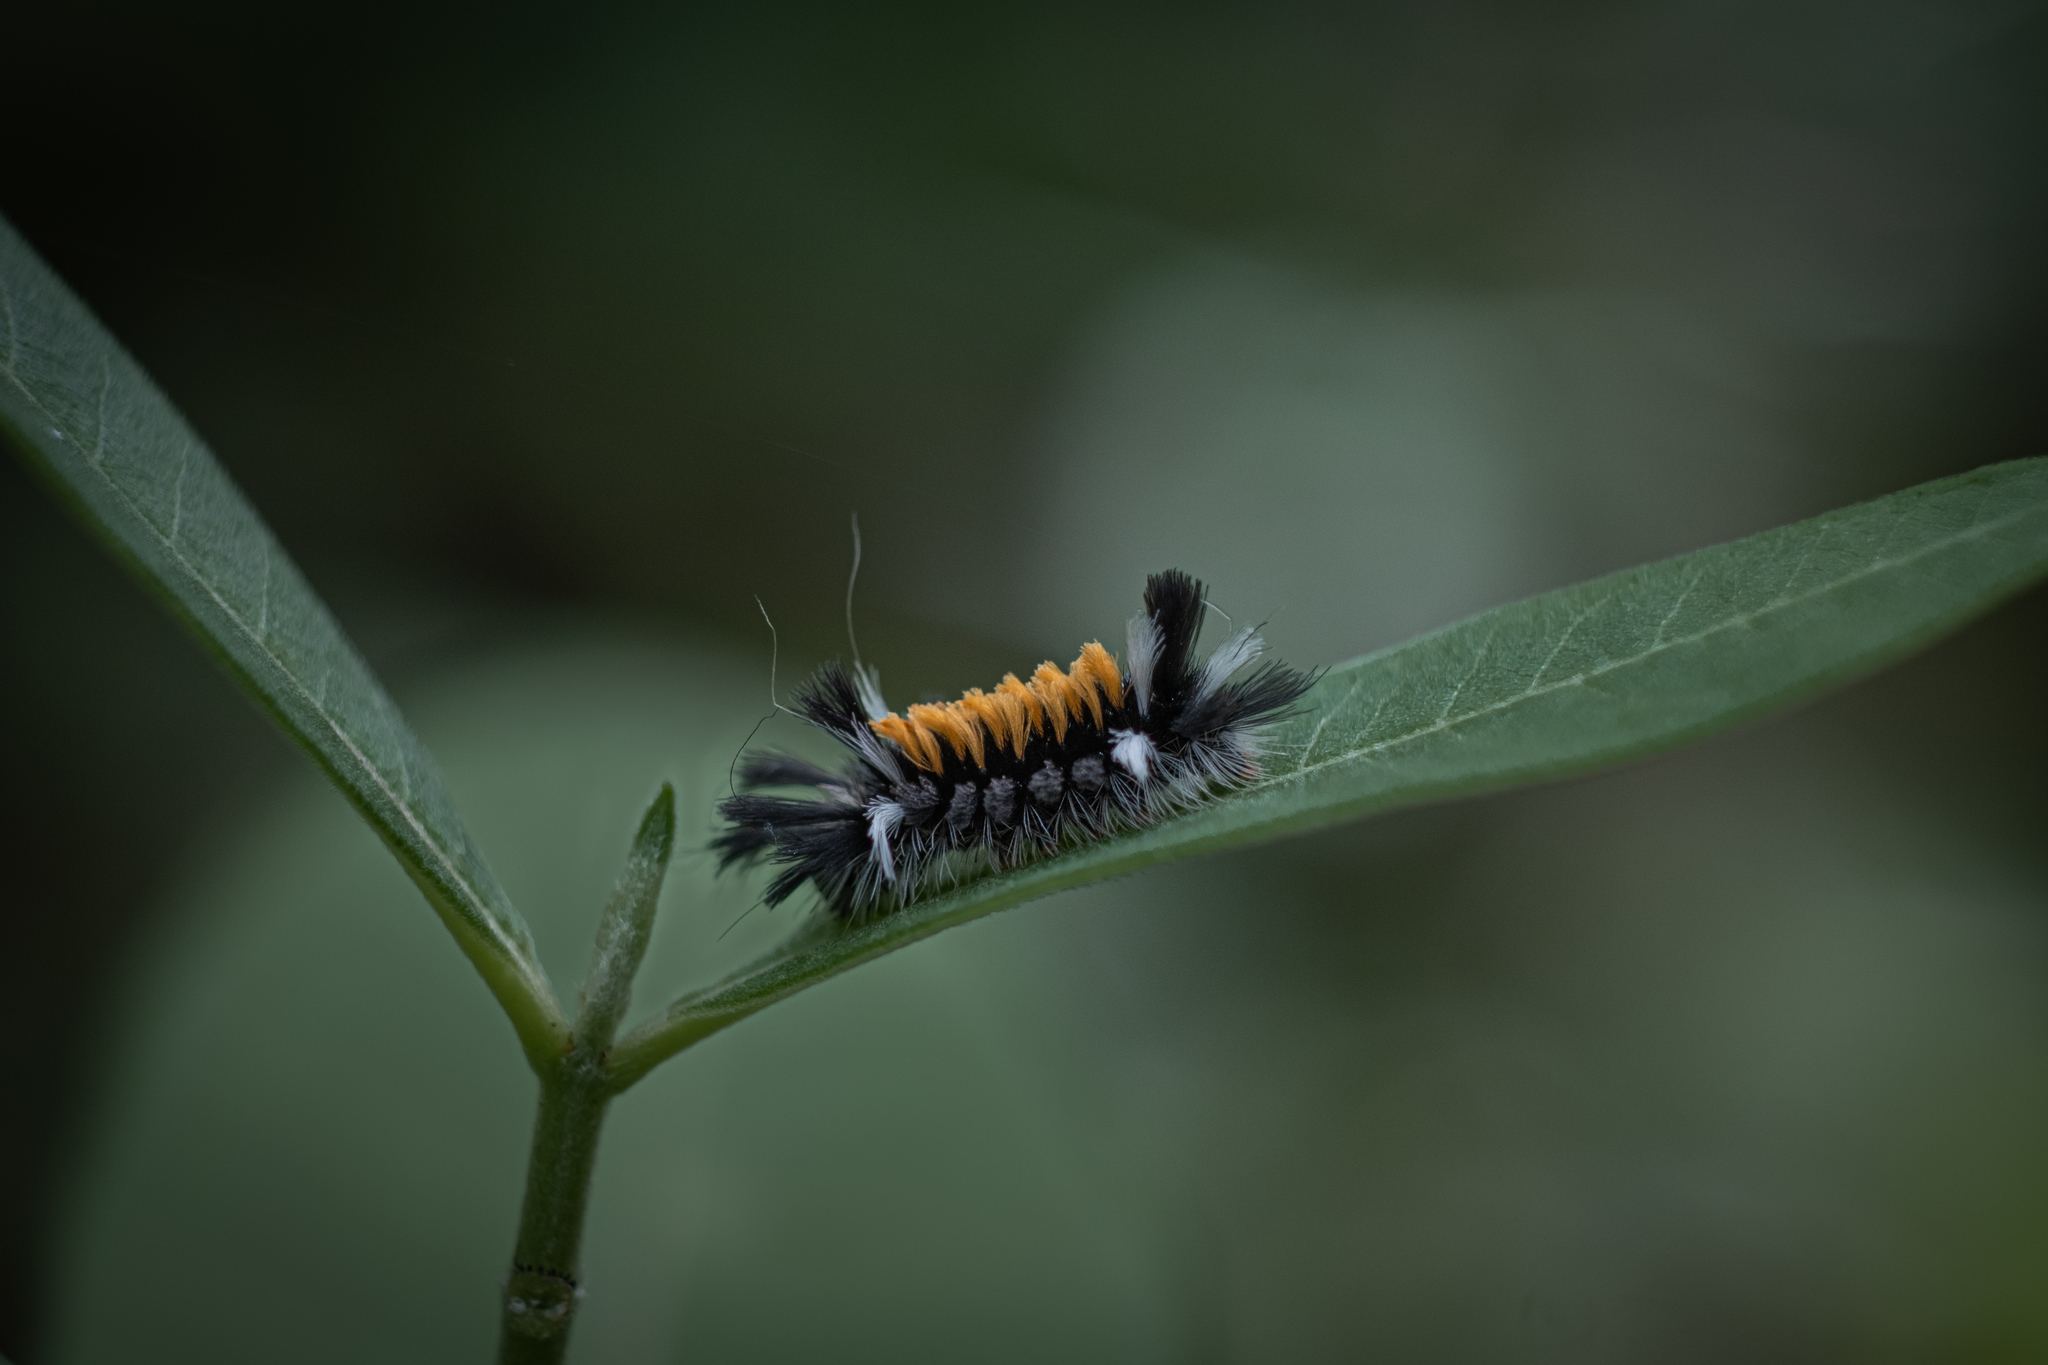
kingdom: Animalia
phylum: Arthropoda
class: Insecta
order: Lepidoptera
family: Erebidae
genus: Euchaetes
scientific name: Euchaetes egle
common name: Milkweed tussock moth
